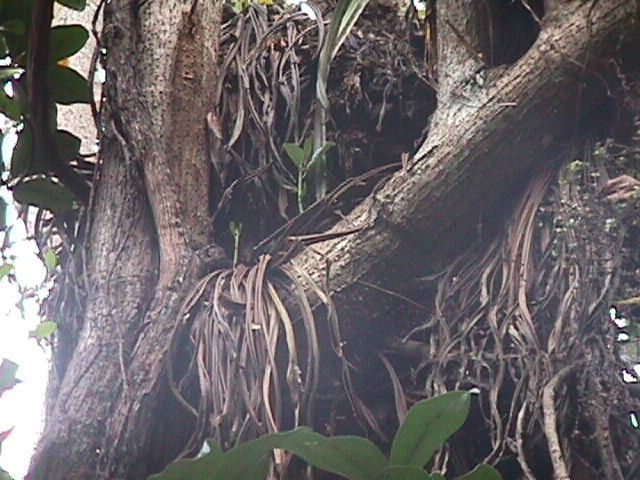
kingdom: Plantae
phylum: Tracheophyta
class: Liliopsida
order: Asparagales
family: Asteliaceae
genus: Astelia
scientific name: Astelia hastata
